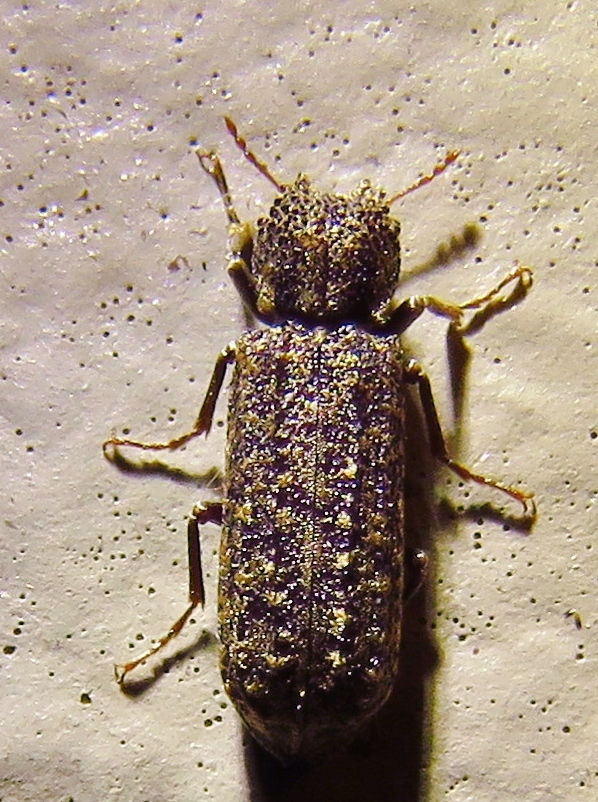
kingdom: Animalia
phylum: Arthropoda
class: Insecta
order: Coleoptera
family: Bostrichidae
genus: Lichenophanes
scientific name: Lichenophanes bicornis
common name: Two-horned powder-post beetle
